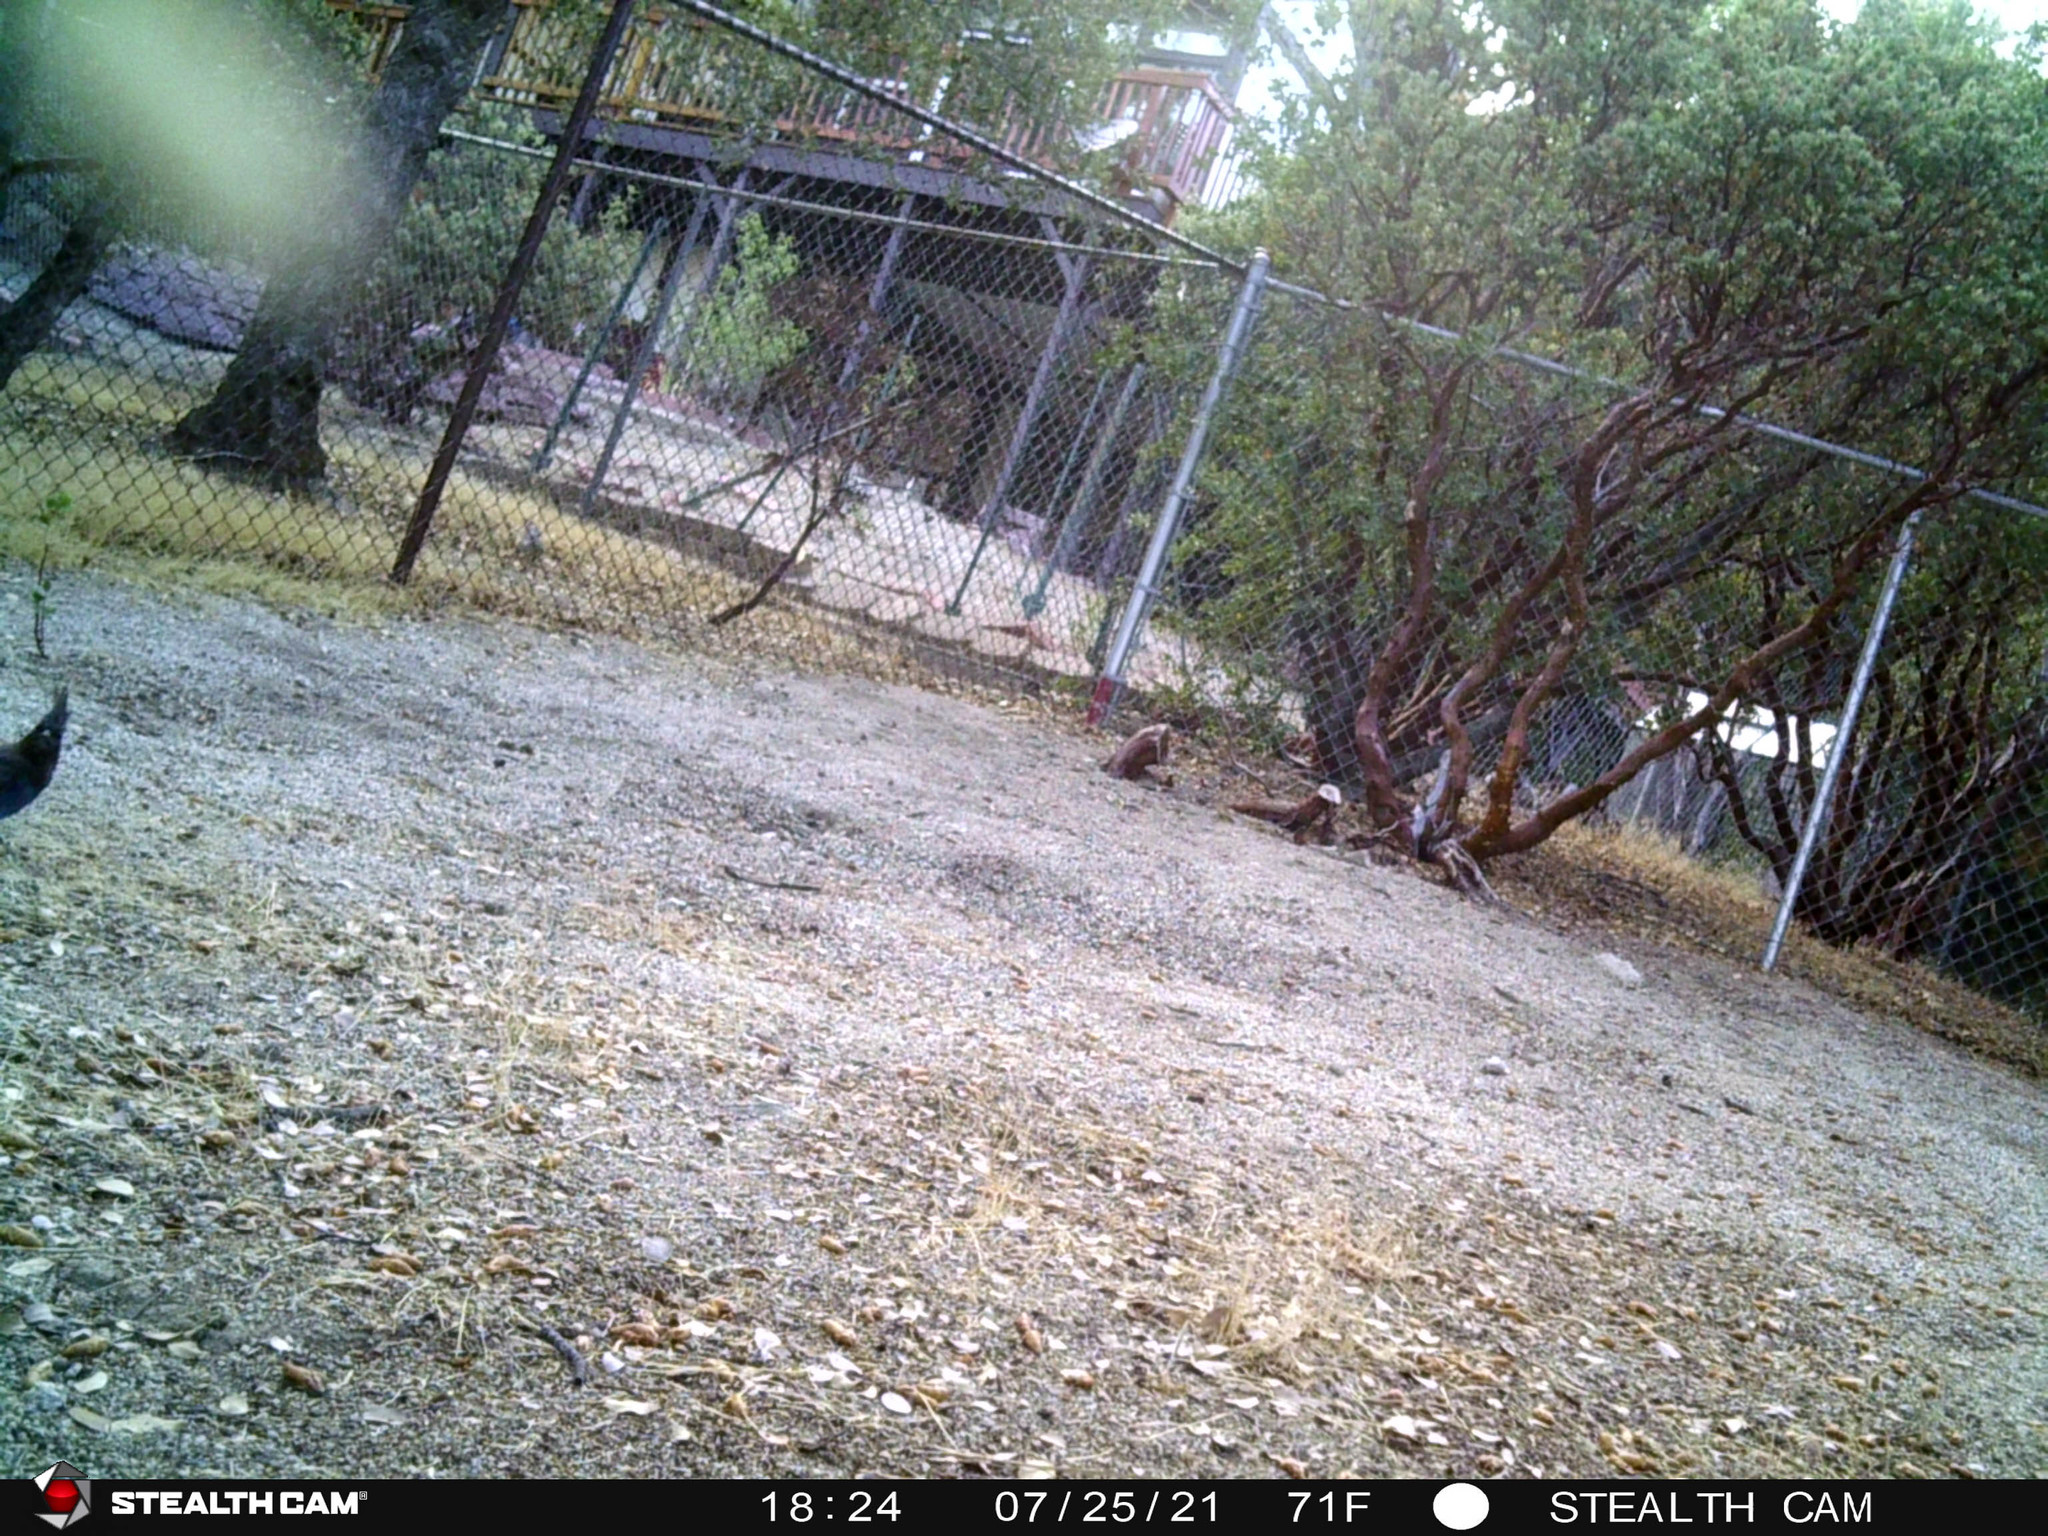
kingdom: Animalia
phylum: Chordata
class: Aves
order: Passeriformes
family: Corvidae
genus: Cyanocitta
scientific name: Cyanocitta stelleri
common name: Steller's jay
